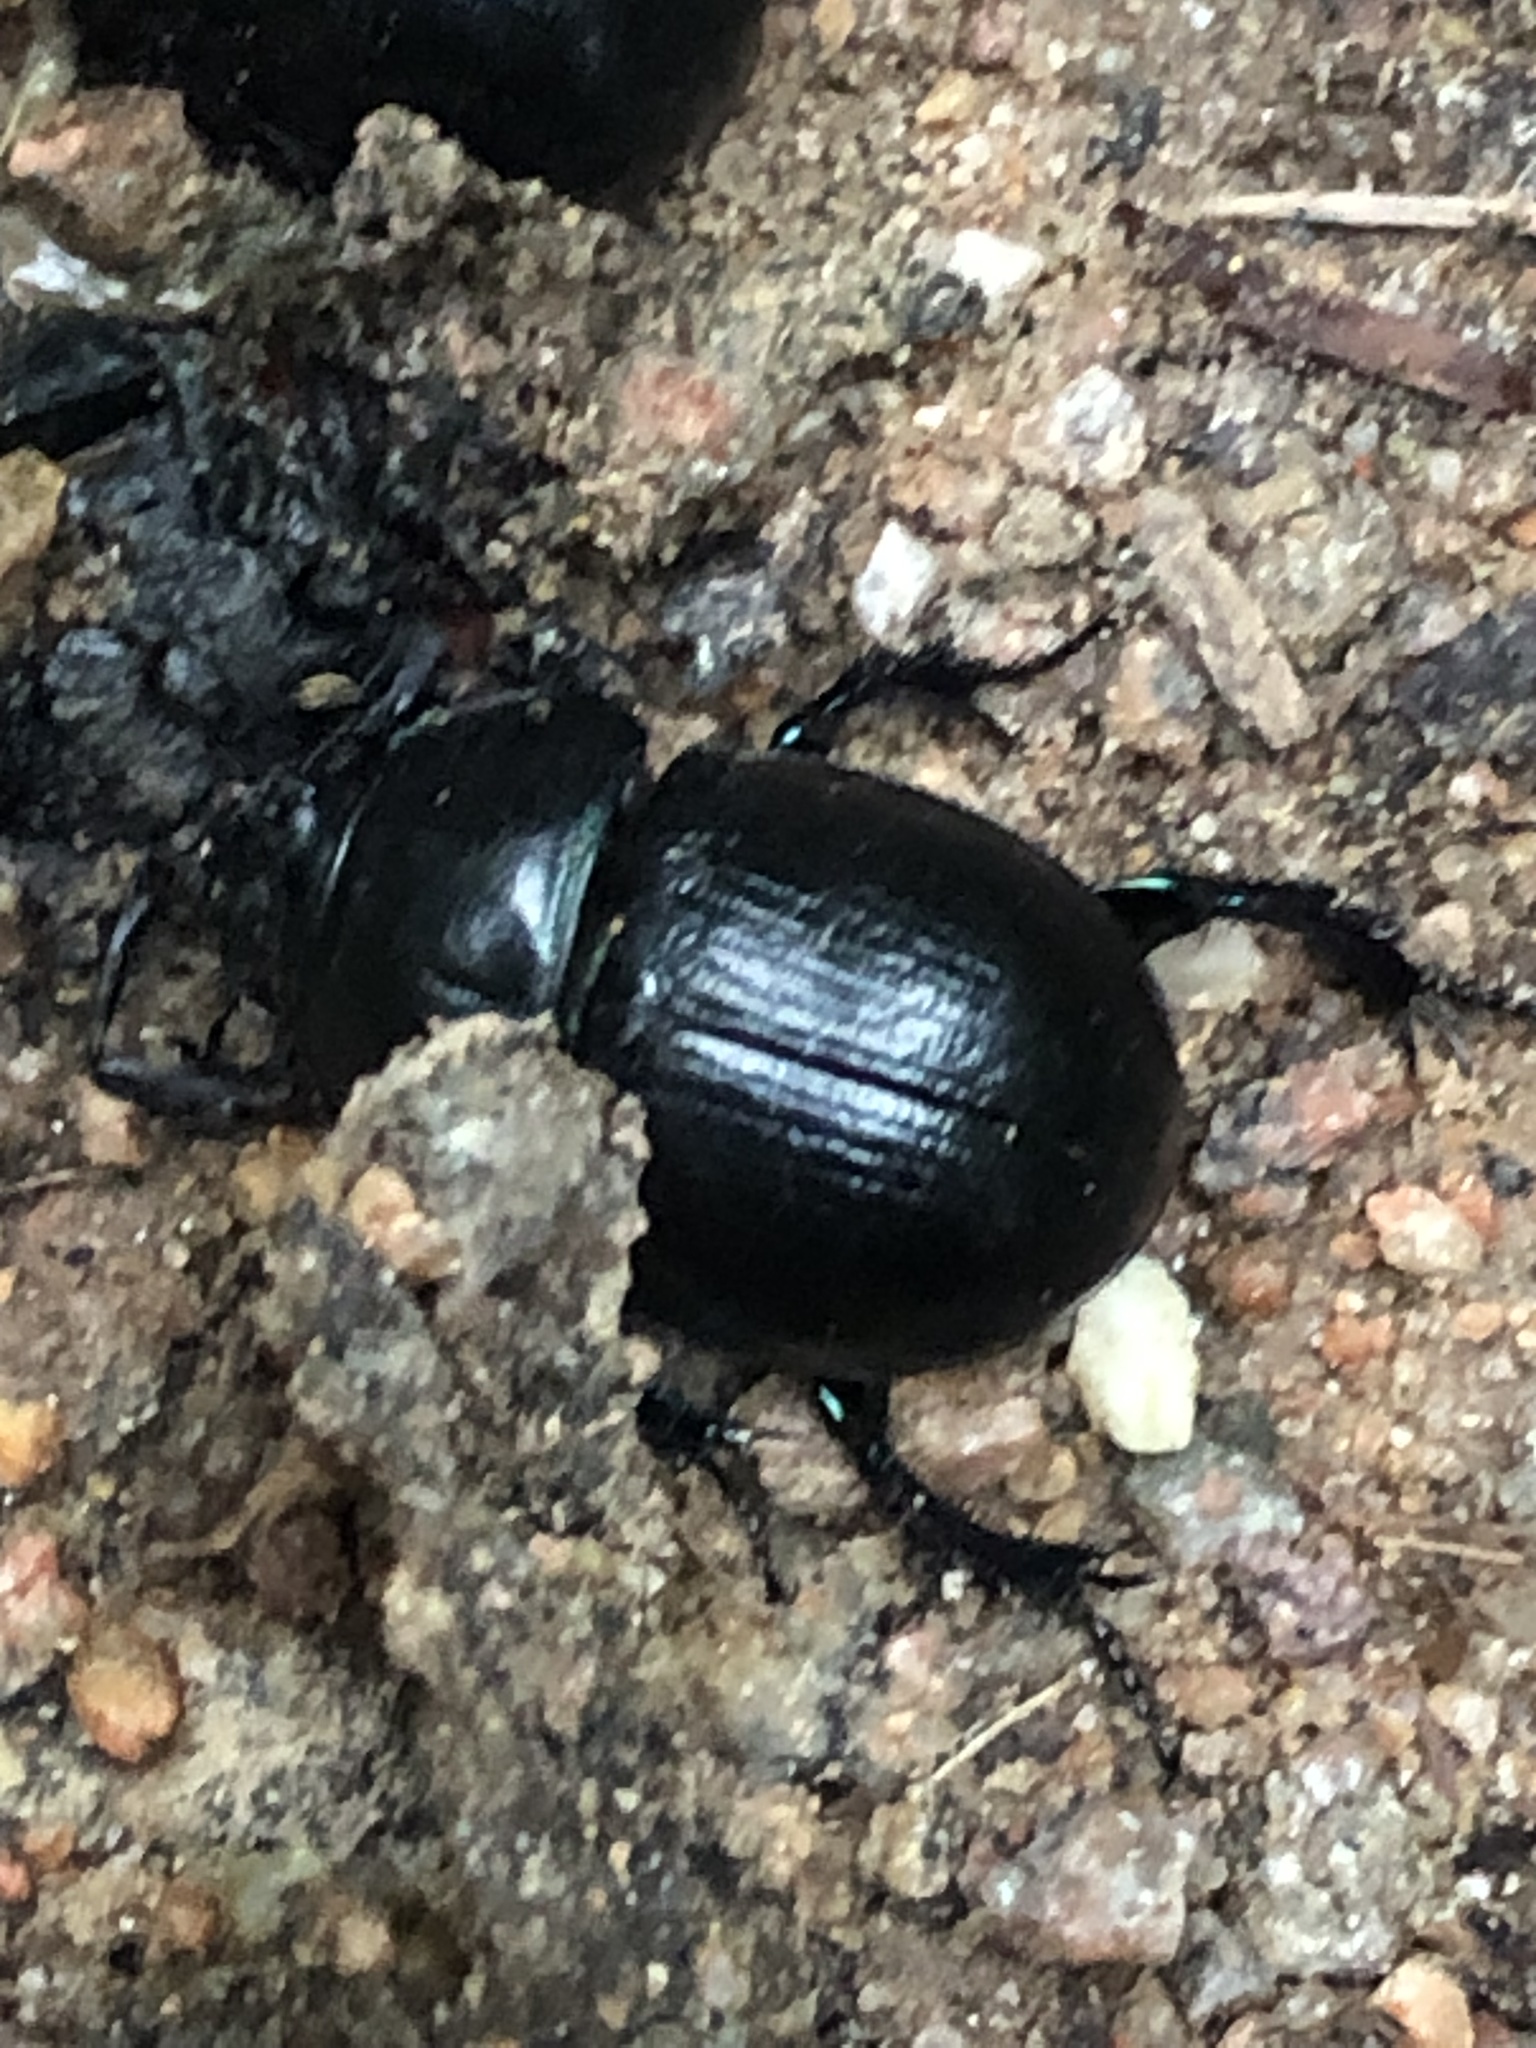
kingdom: Animalia
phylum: Arthropoda
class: Insecta
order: Coleoptera
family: Geotrupidae
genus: Anoplotrupes
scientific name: Anoplotrupes stercorosus
